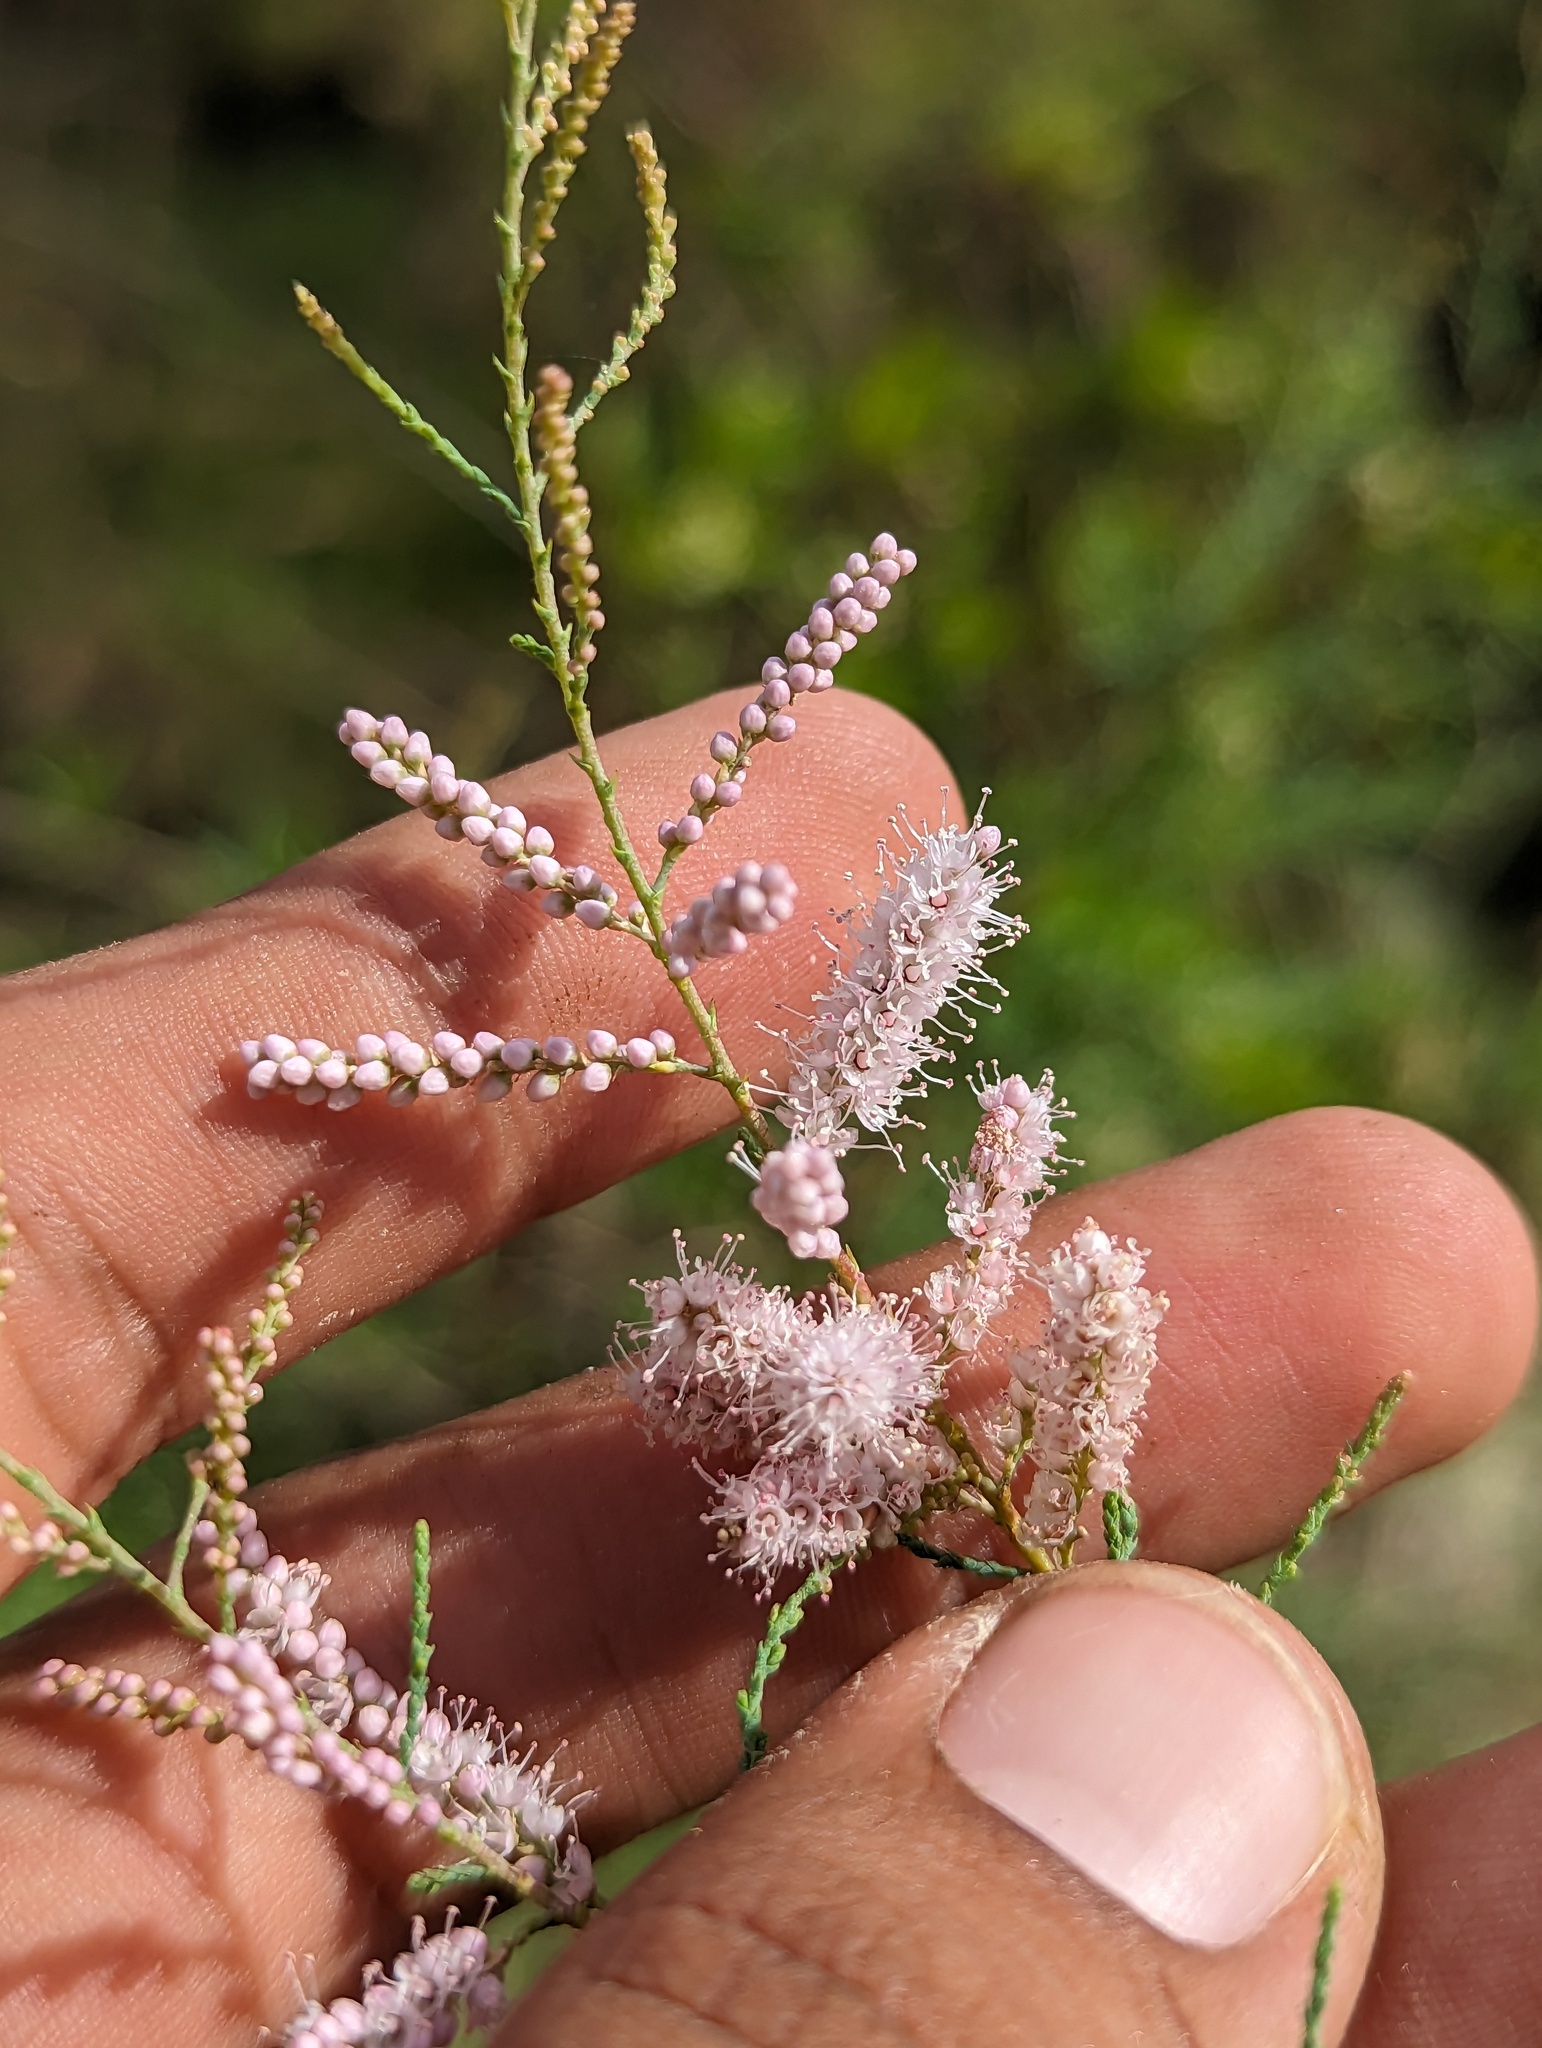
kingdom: Plantae
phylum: Tracheophyta
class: Magnoliopsida
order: Caryophyllales
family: Tamaricaceae
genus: Tamarix
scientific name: Tamarix ramosissima
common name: Pink tamarisk
